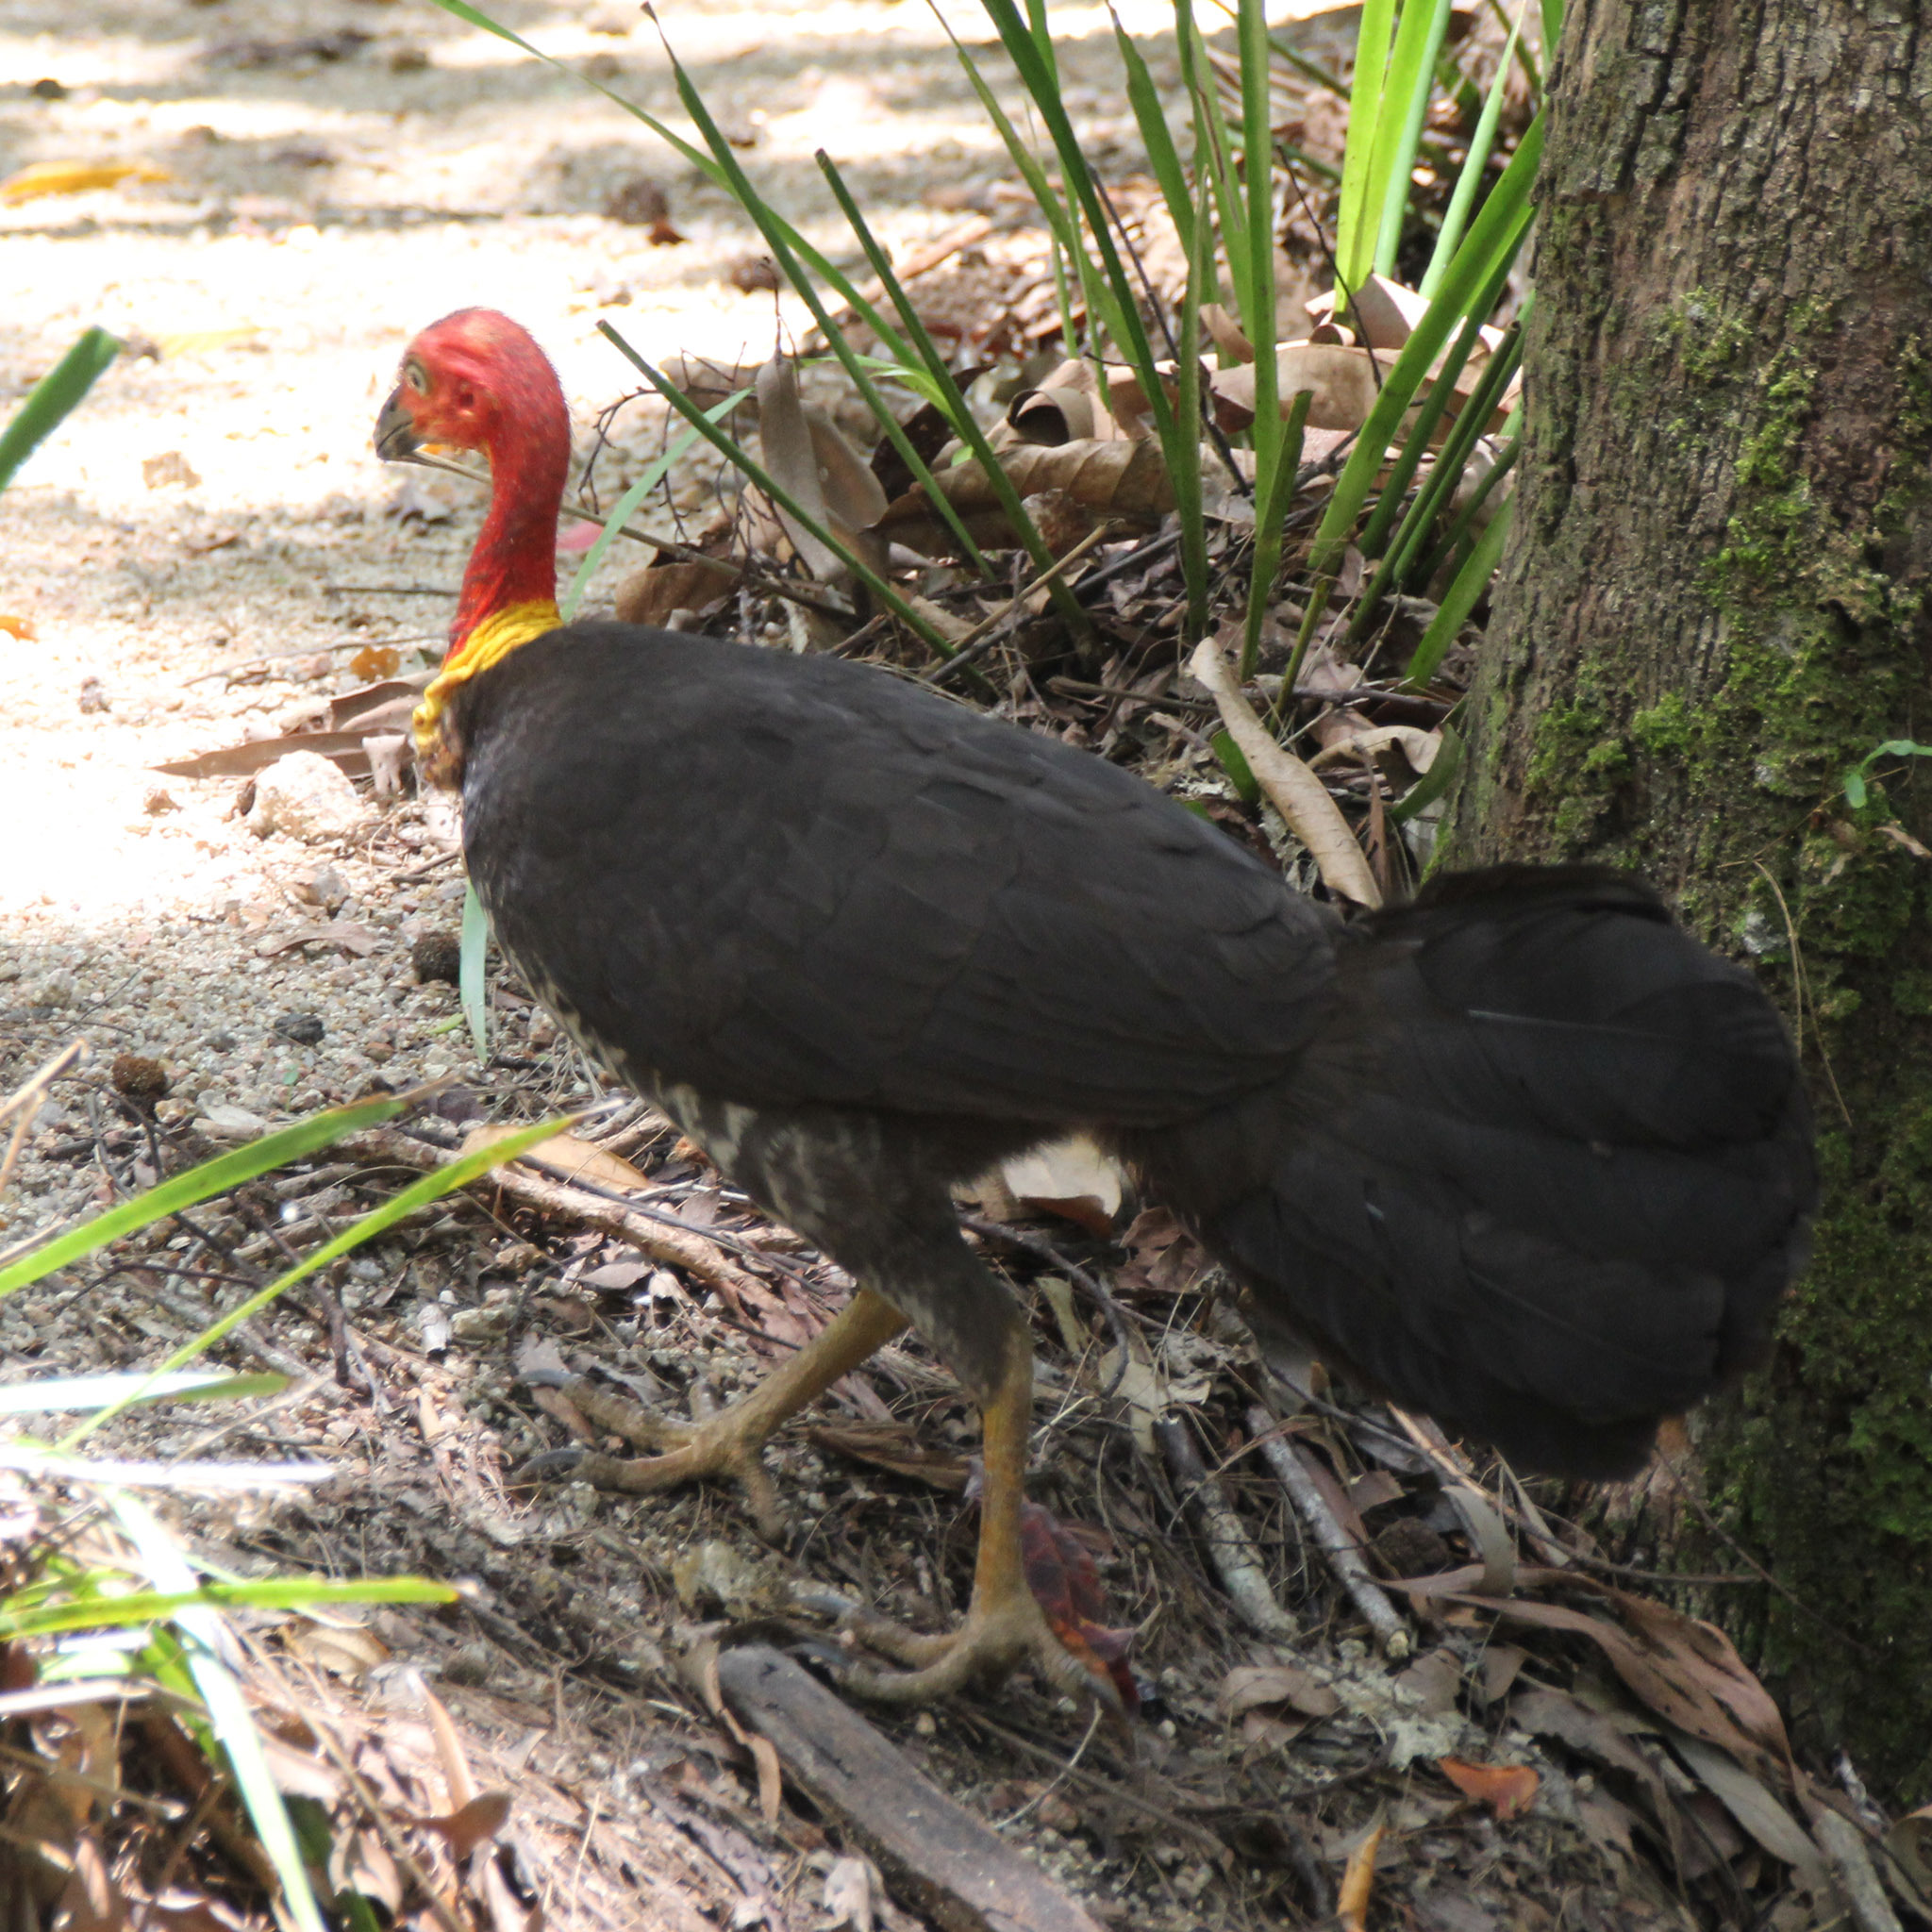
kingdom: Animalia
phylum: Chordata
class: Aves
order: Galliformes
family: Megapodiidae
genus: Alectura
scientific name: Alectura lathami
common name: Australian brushturkey
